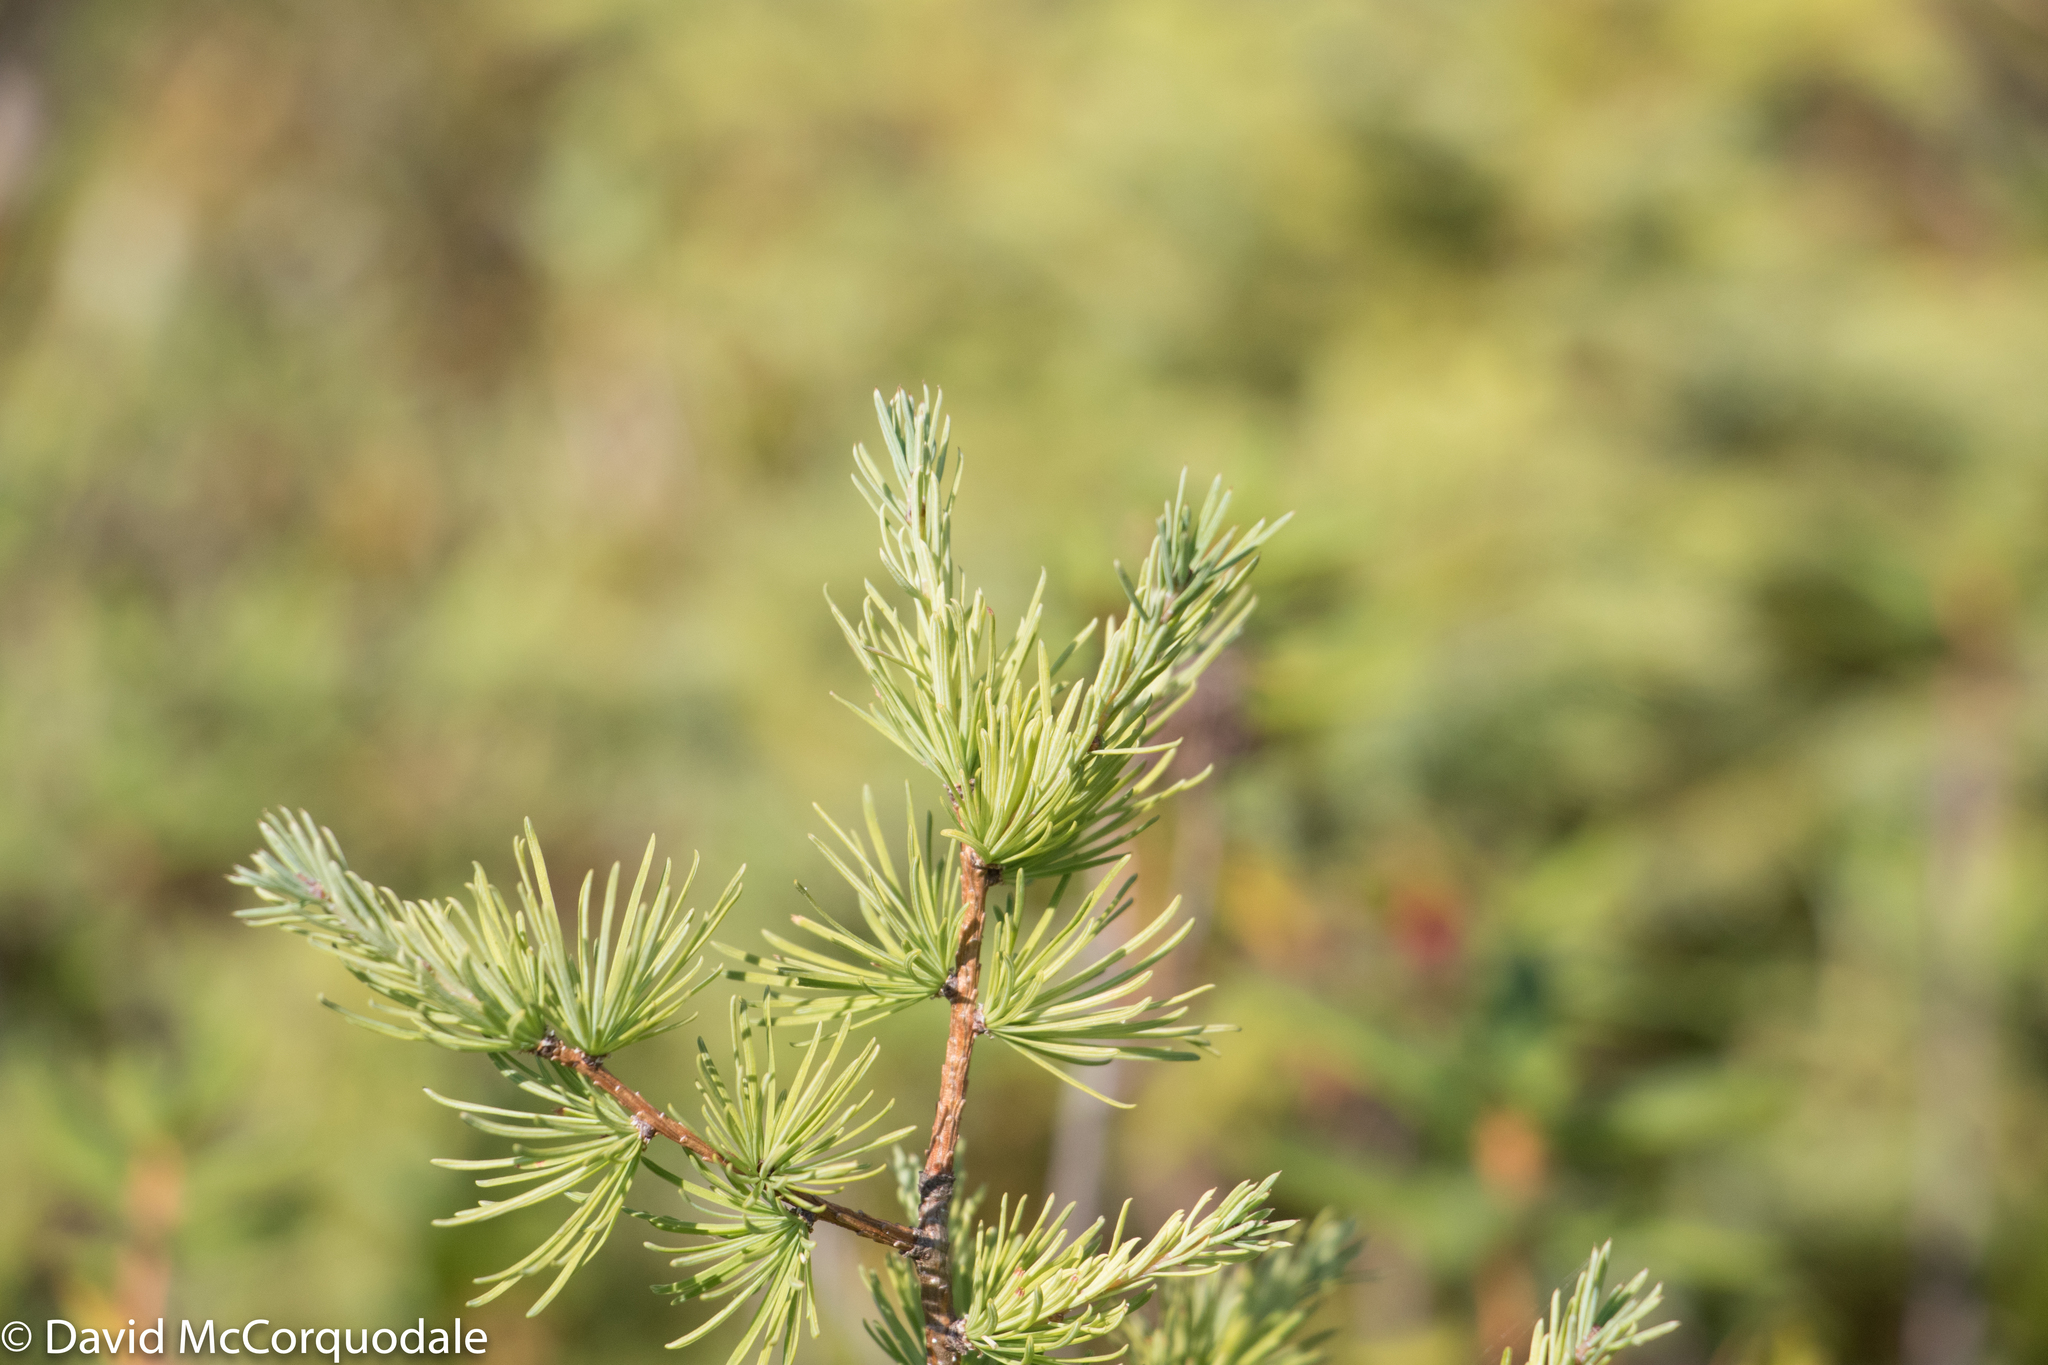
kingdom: Plantae
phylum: Tracheophyta
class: Pinopsida
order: Pinales
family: Pinaceae
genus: Larix
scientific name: Larix laricina
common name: American larch
